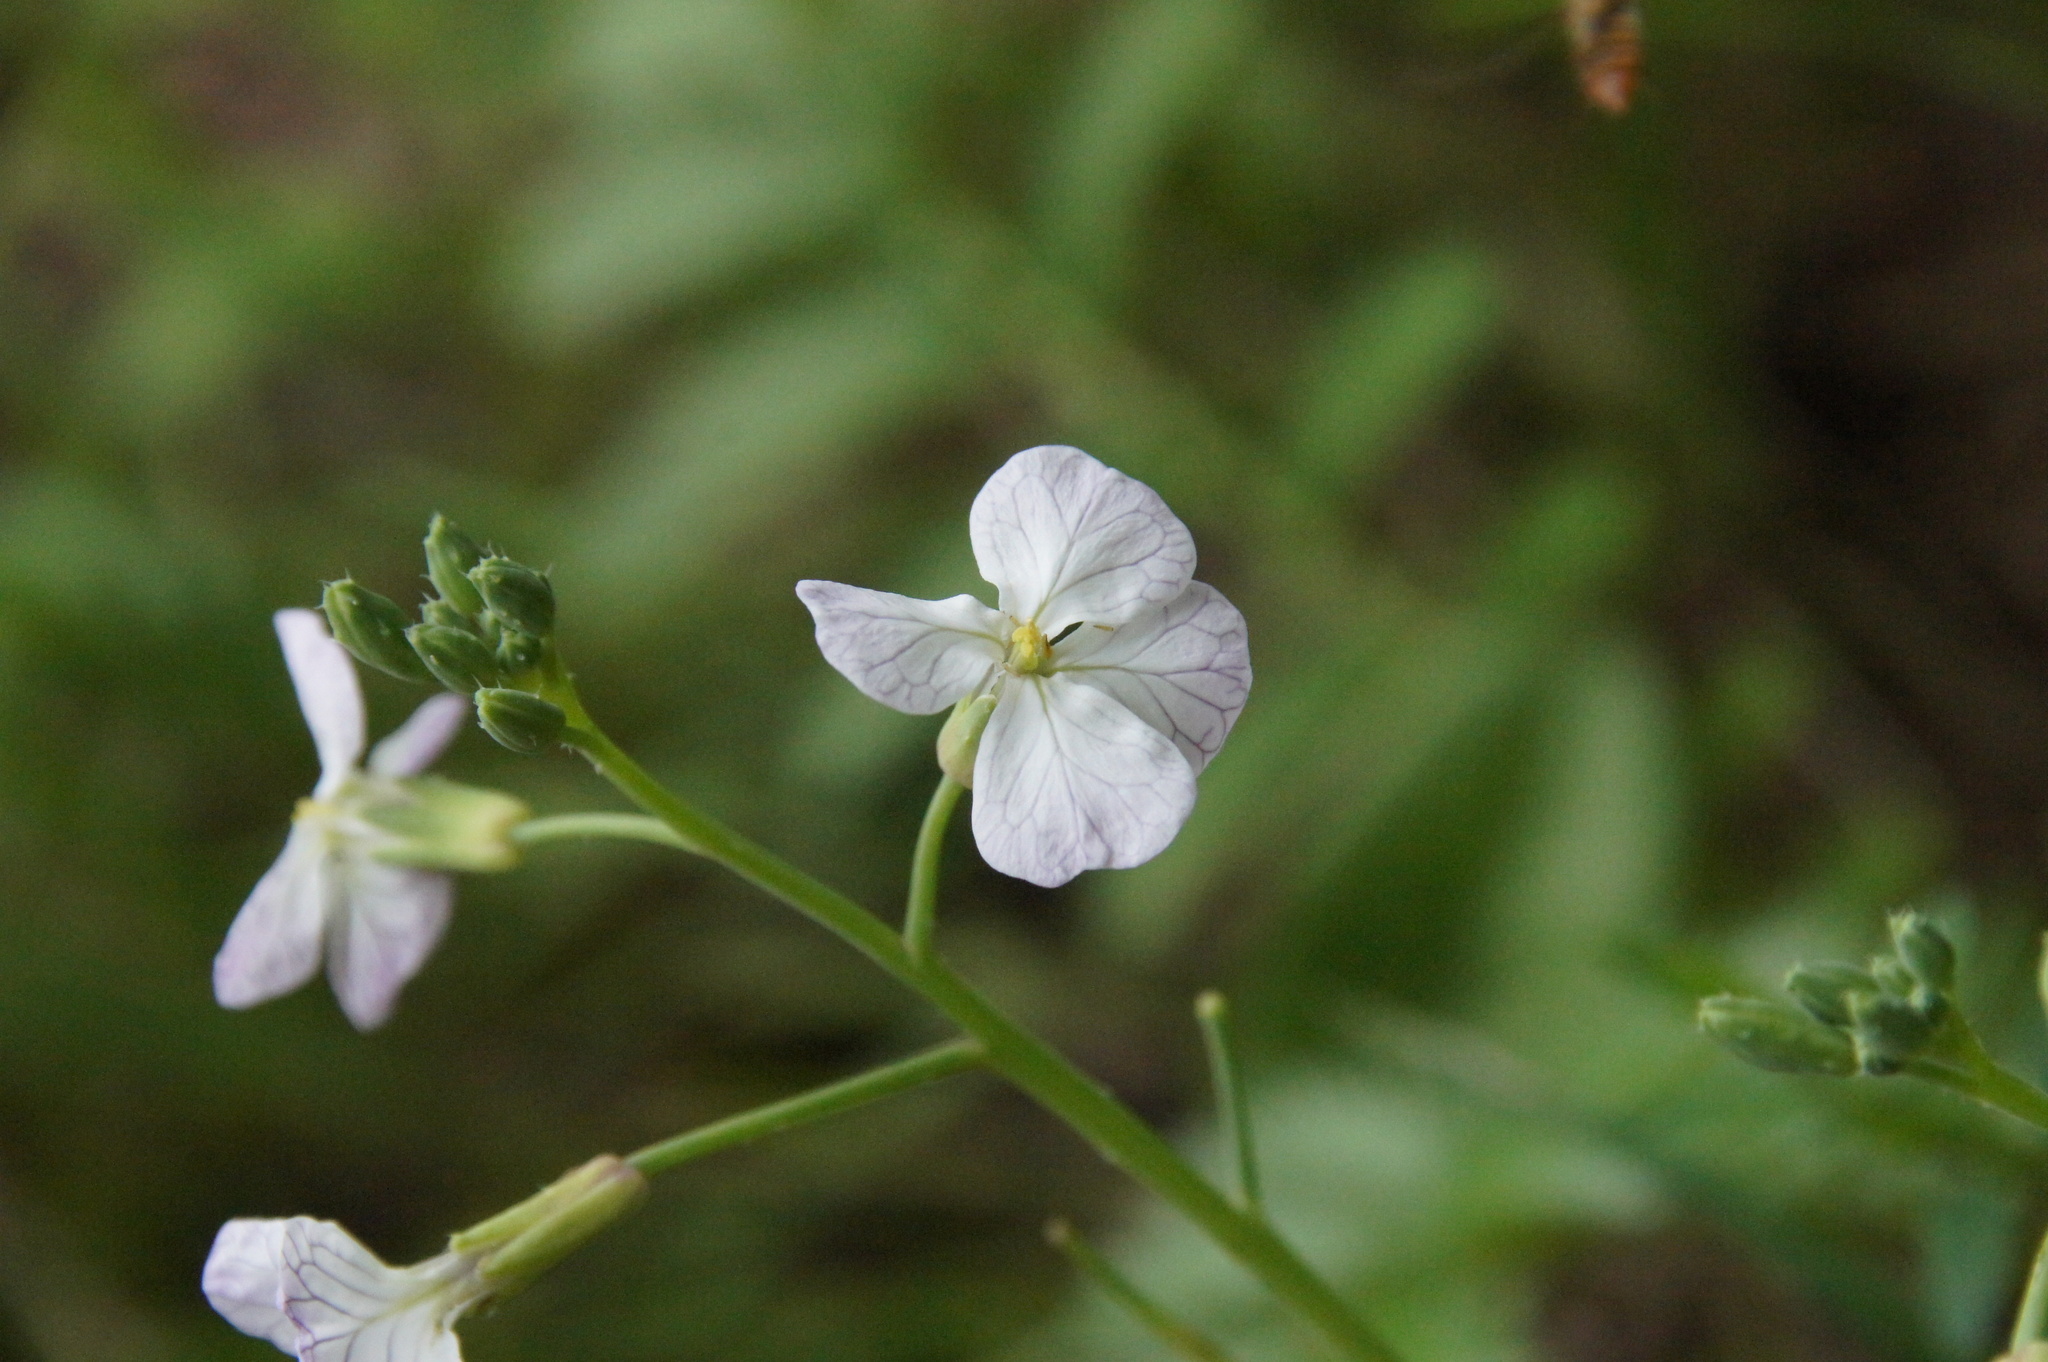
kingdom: Plantae
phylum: Tracheophyta
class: Magnoliopsida
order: Brassicales
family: Brassicaceae
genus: Raphanus
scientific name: Raphanus raphanistrum
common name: Wild radish
